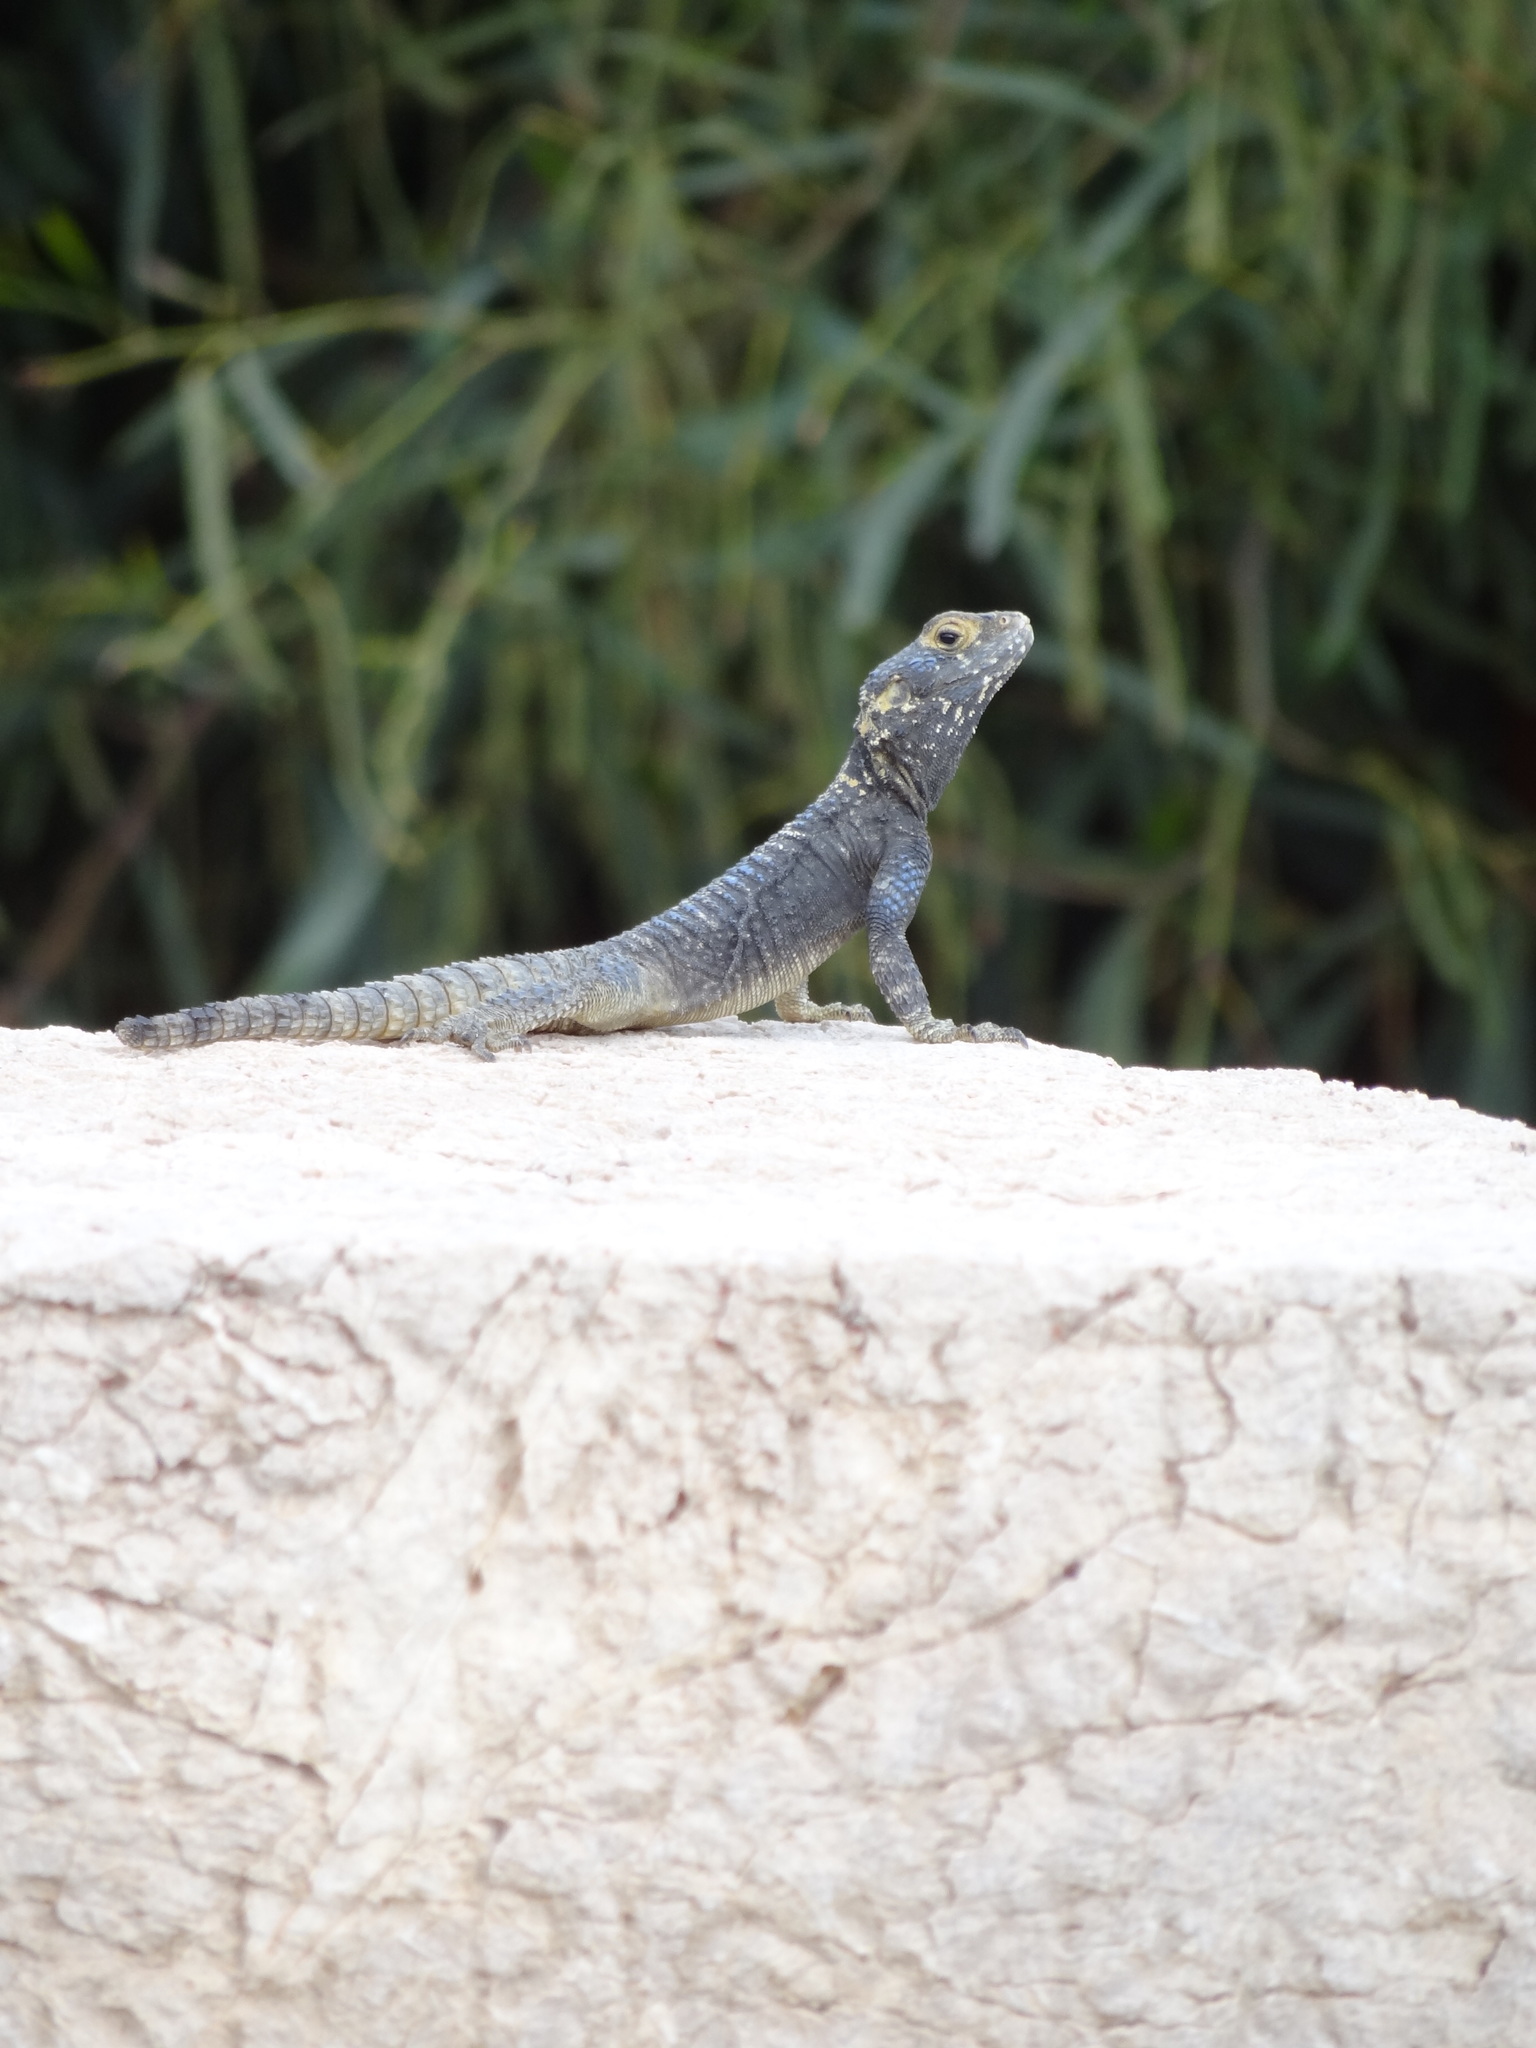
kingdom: Animalia
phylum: Chordata
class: Squamata
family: Agamidae
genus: Stellagama
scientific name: Stellagama stellio
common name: Starred agama
